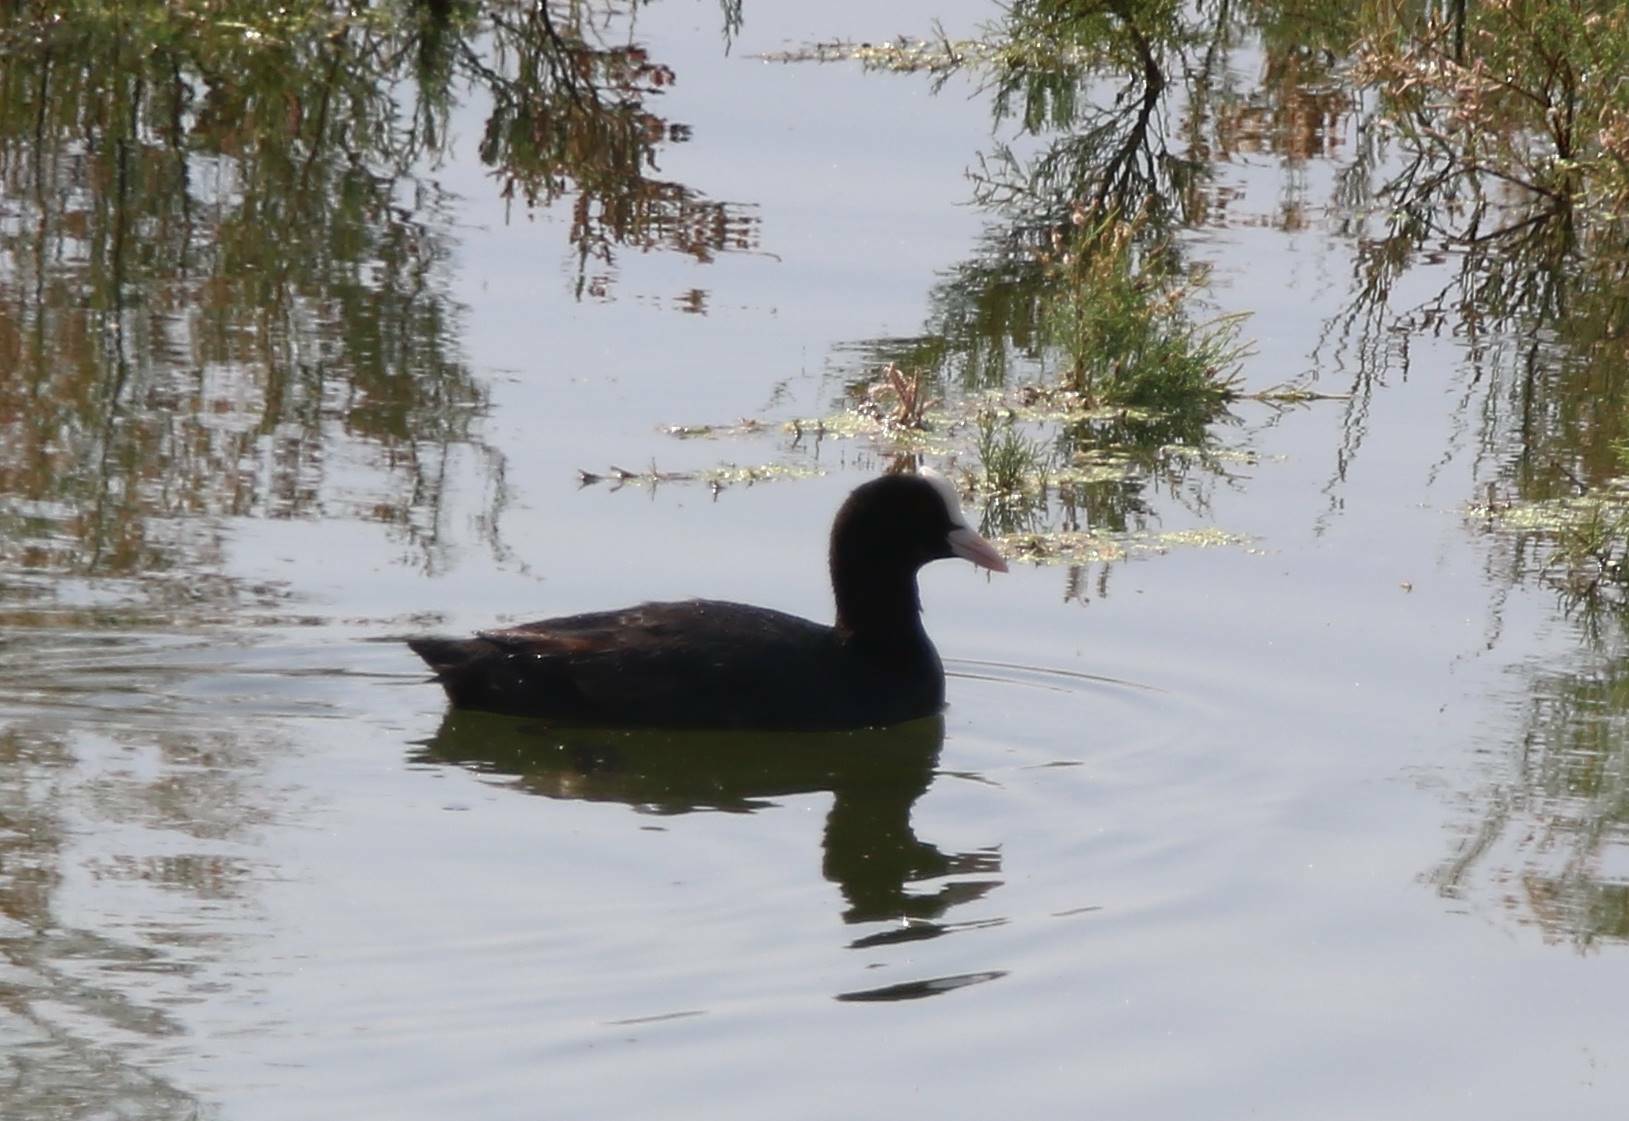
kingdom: Animalia
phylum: Chordata
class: Aves
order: Gruiformes
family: Rallidae
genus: Fulica
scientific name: Fulica atra
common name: Eurasian coot
